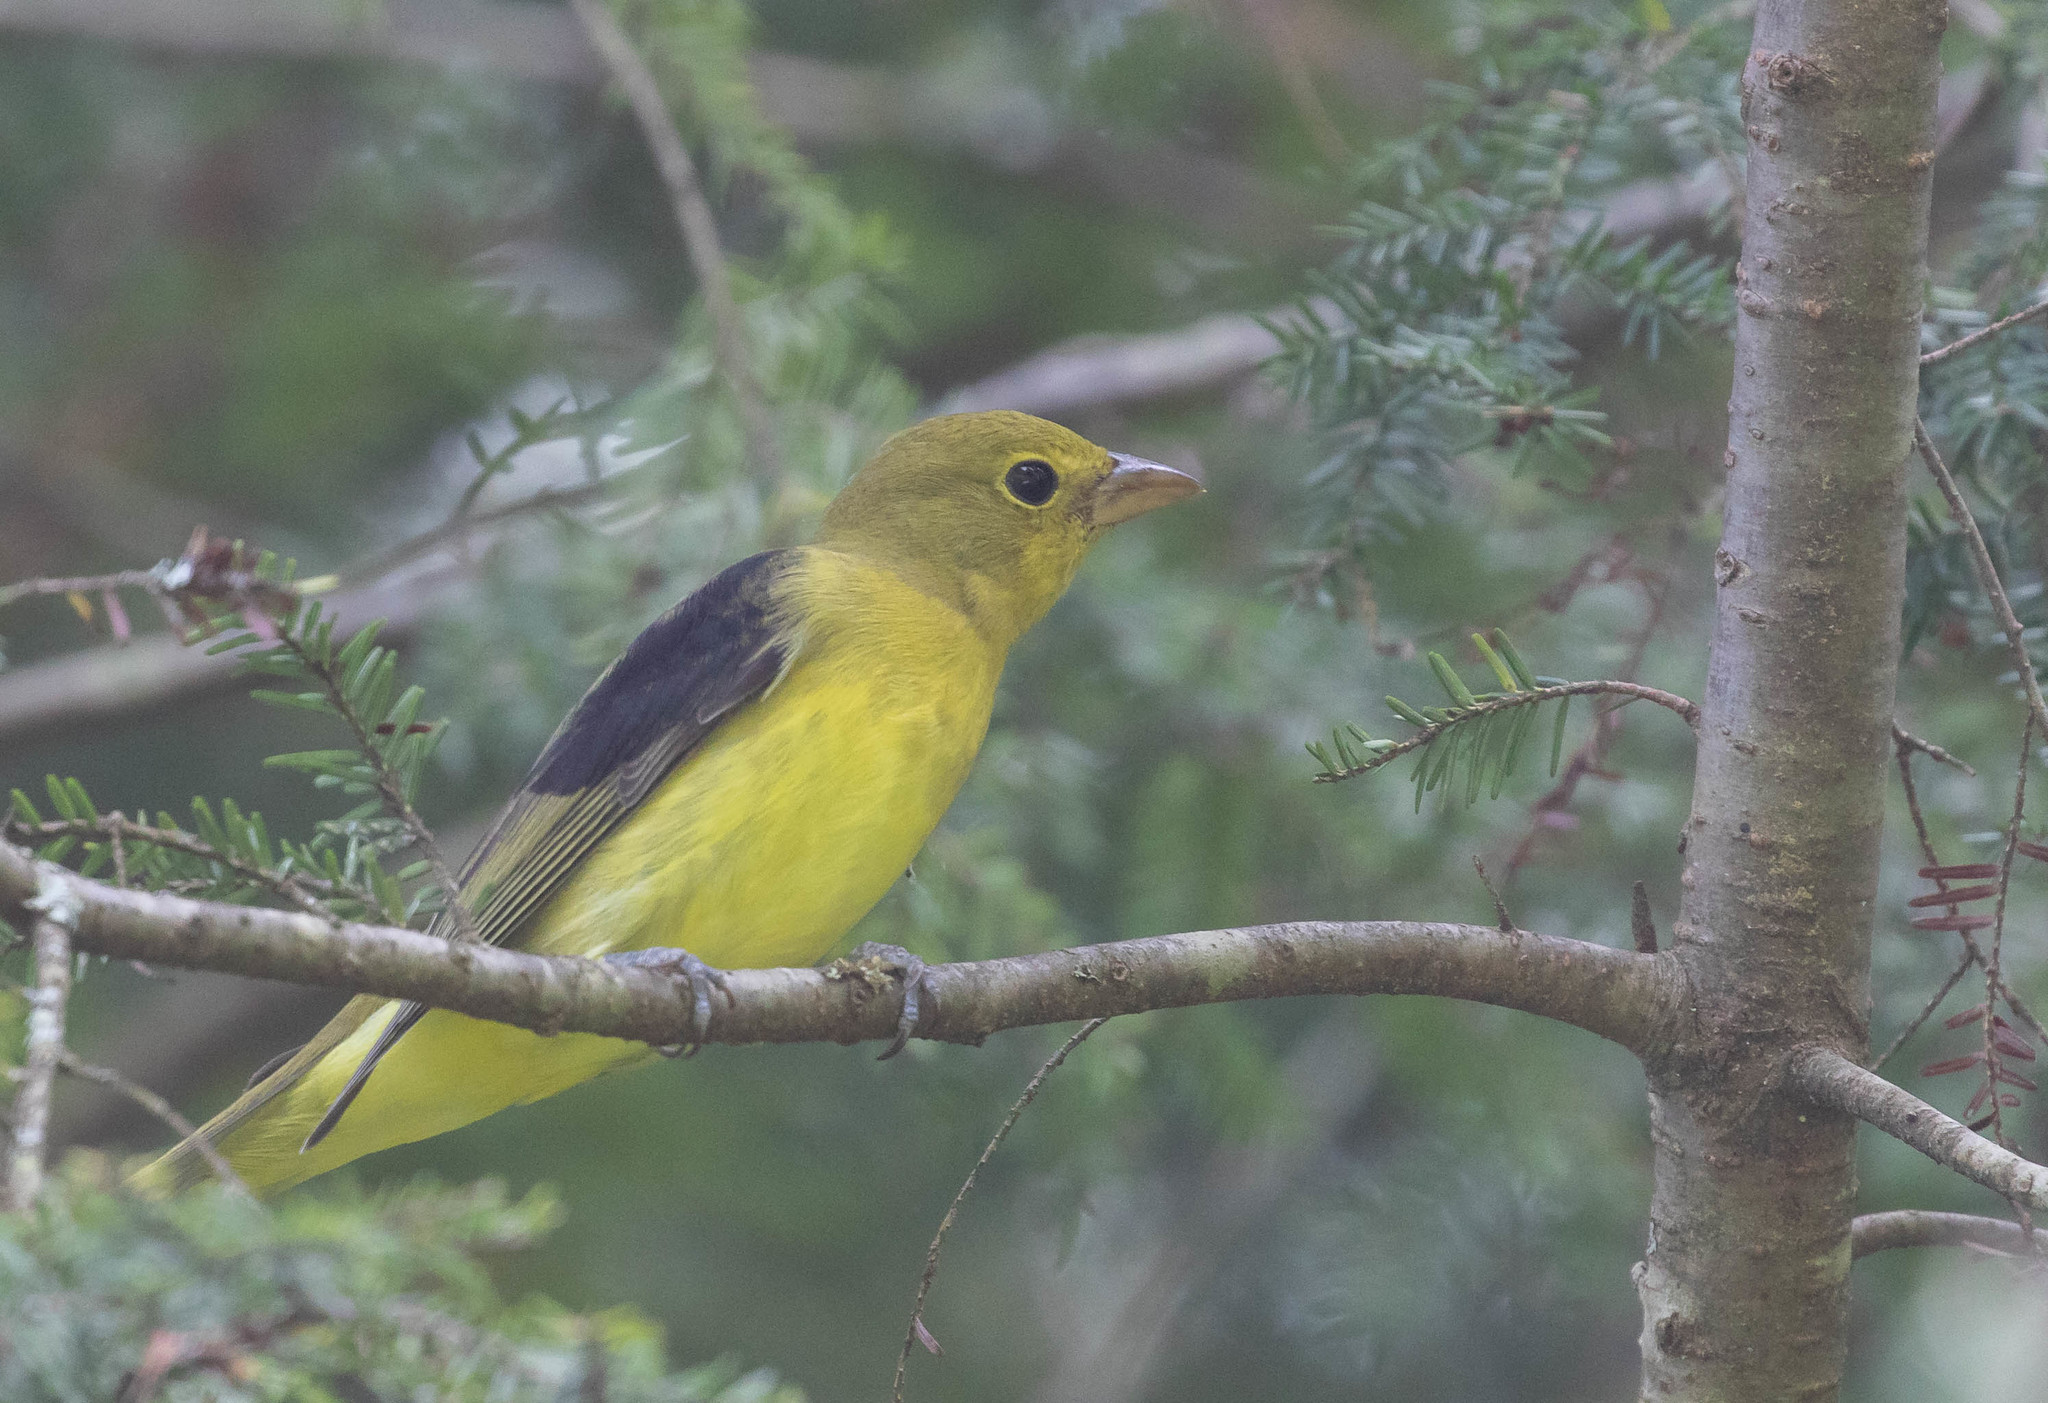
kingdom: Animalia
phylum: Chordata
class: Aves
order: Passeriformes
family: Cardinalidae
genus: Piranga
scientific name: Piranga olivacea
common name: Scarlet tanager
